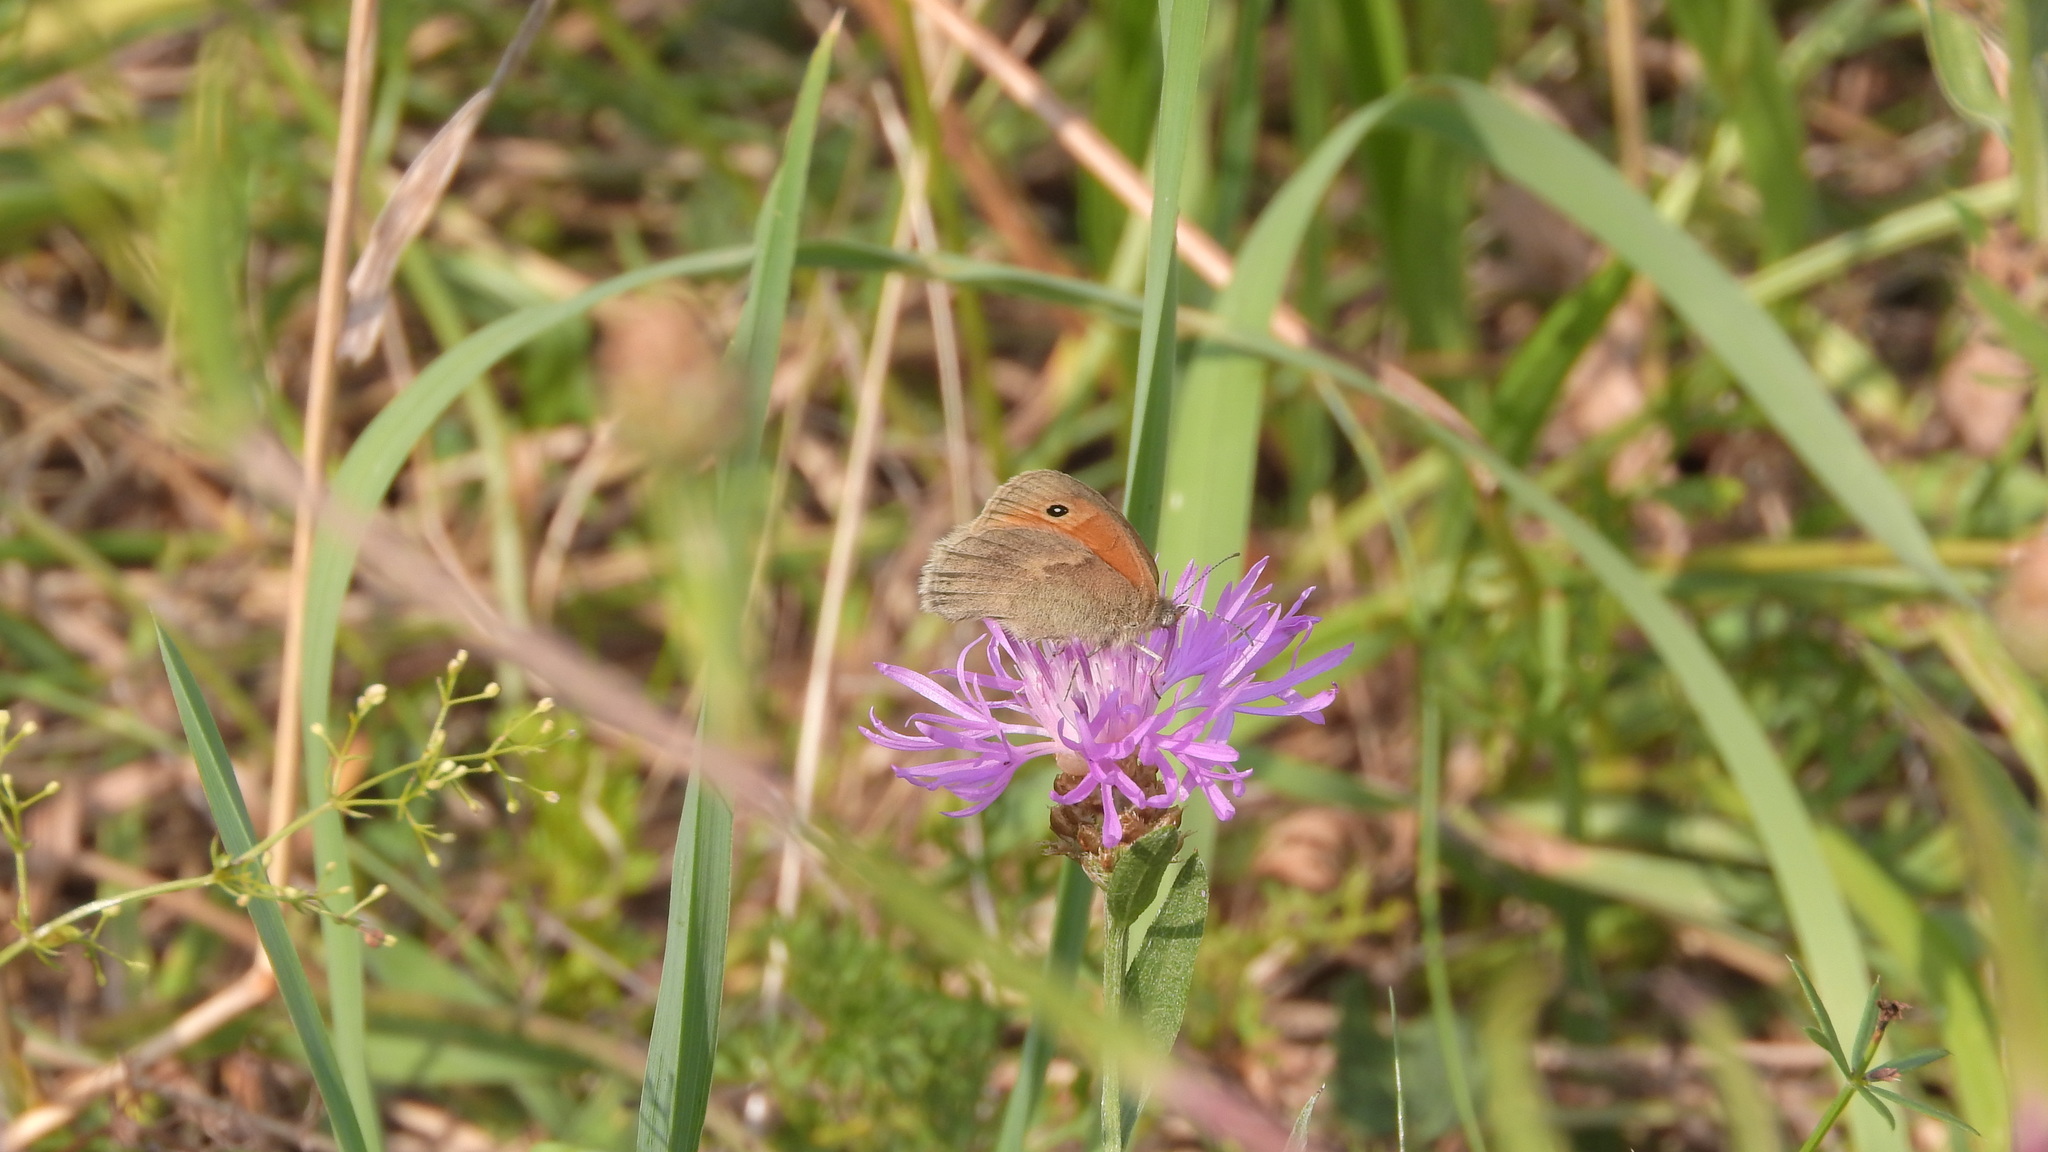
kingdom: Animalia
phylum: Arthropoda
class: Insecta
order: Lepidoptera
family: Nymphalidae
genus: Coenonympha
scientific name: Coenonympha pamphilus
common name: Small heath
